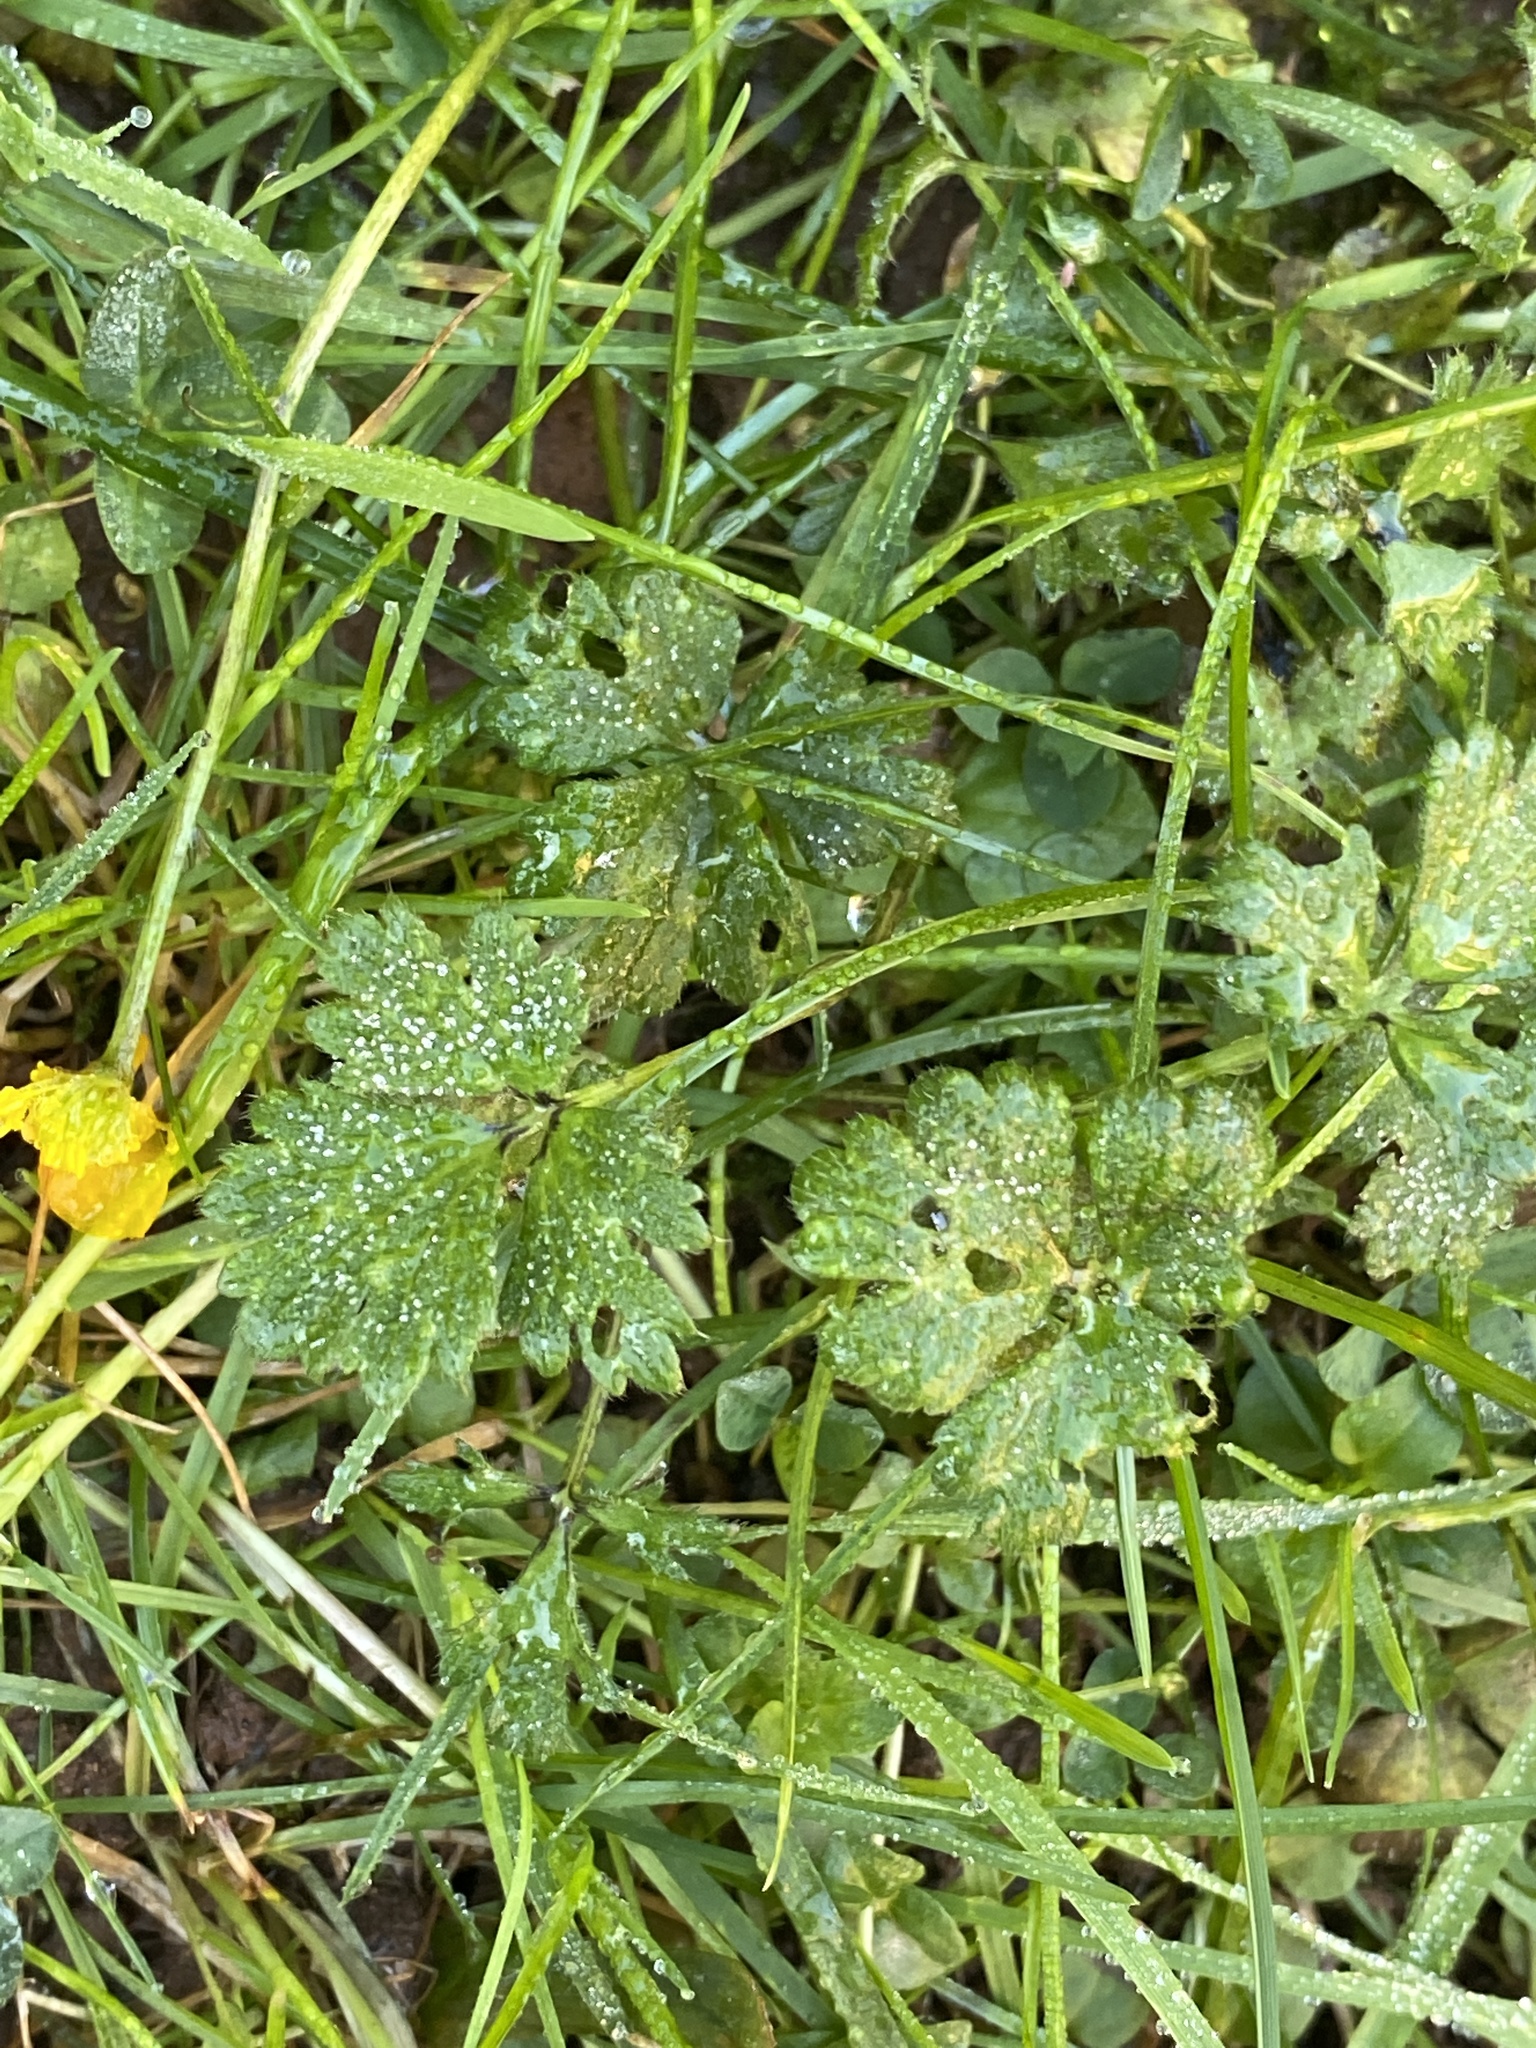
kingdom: Plantae
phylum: Tracheophyta
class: Magnoliopsida
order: Ranunculales
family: Ranunculaceae
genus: Ranunculus
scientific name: Ranunculus repens
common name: Creeping buttercup
